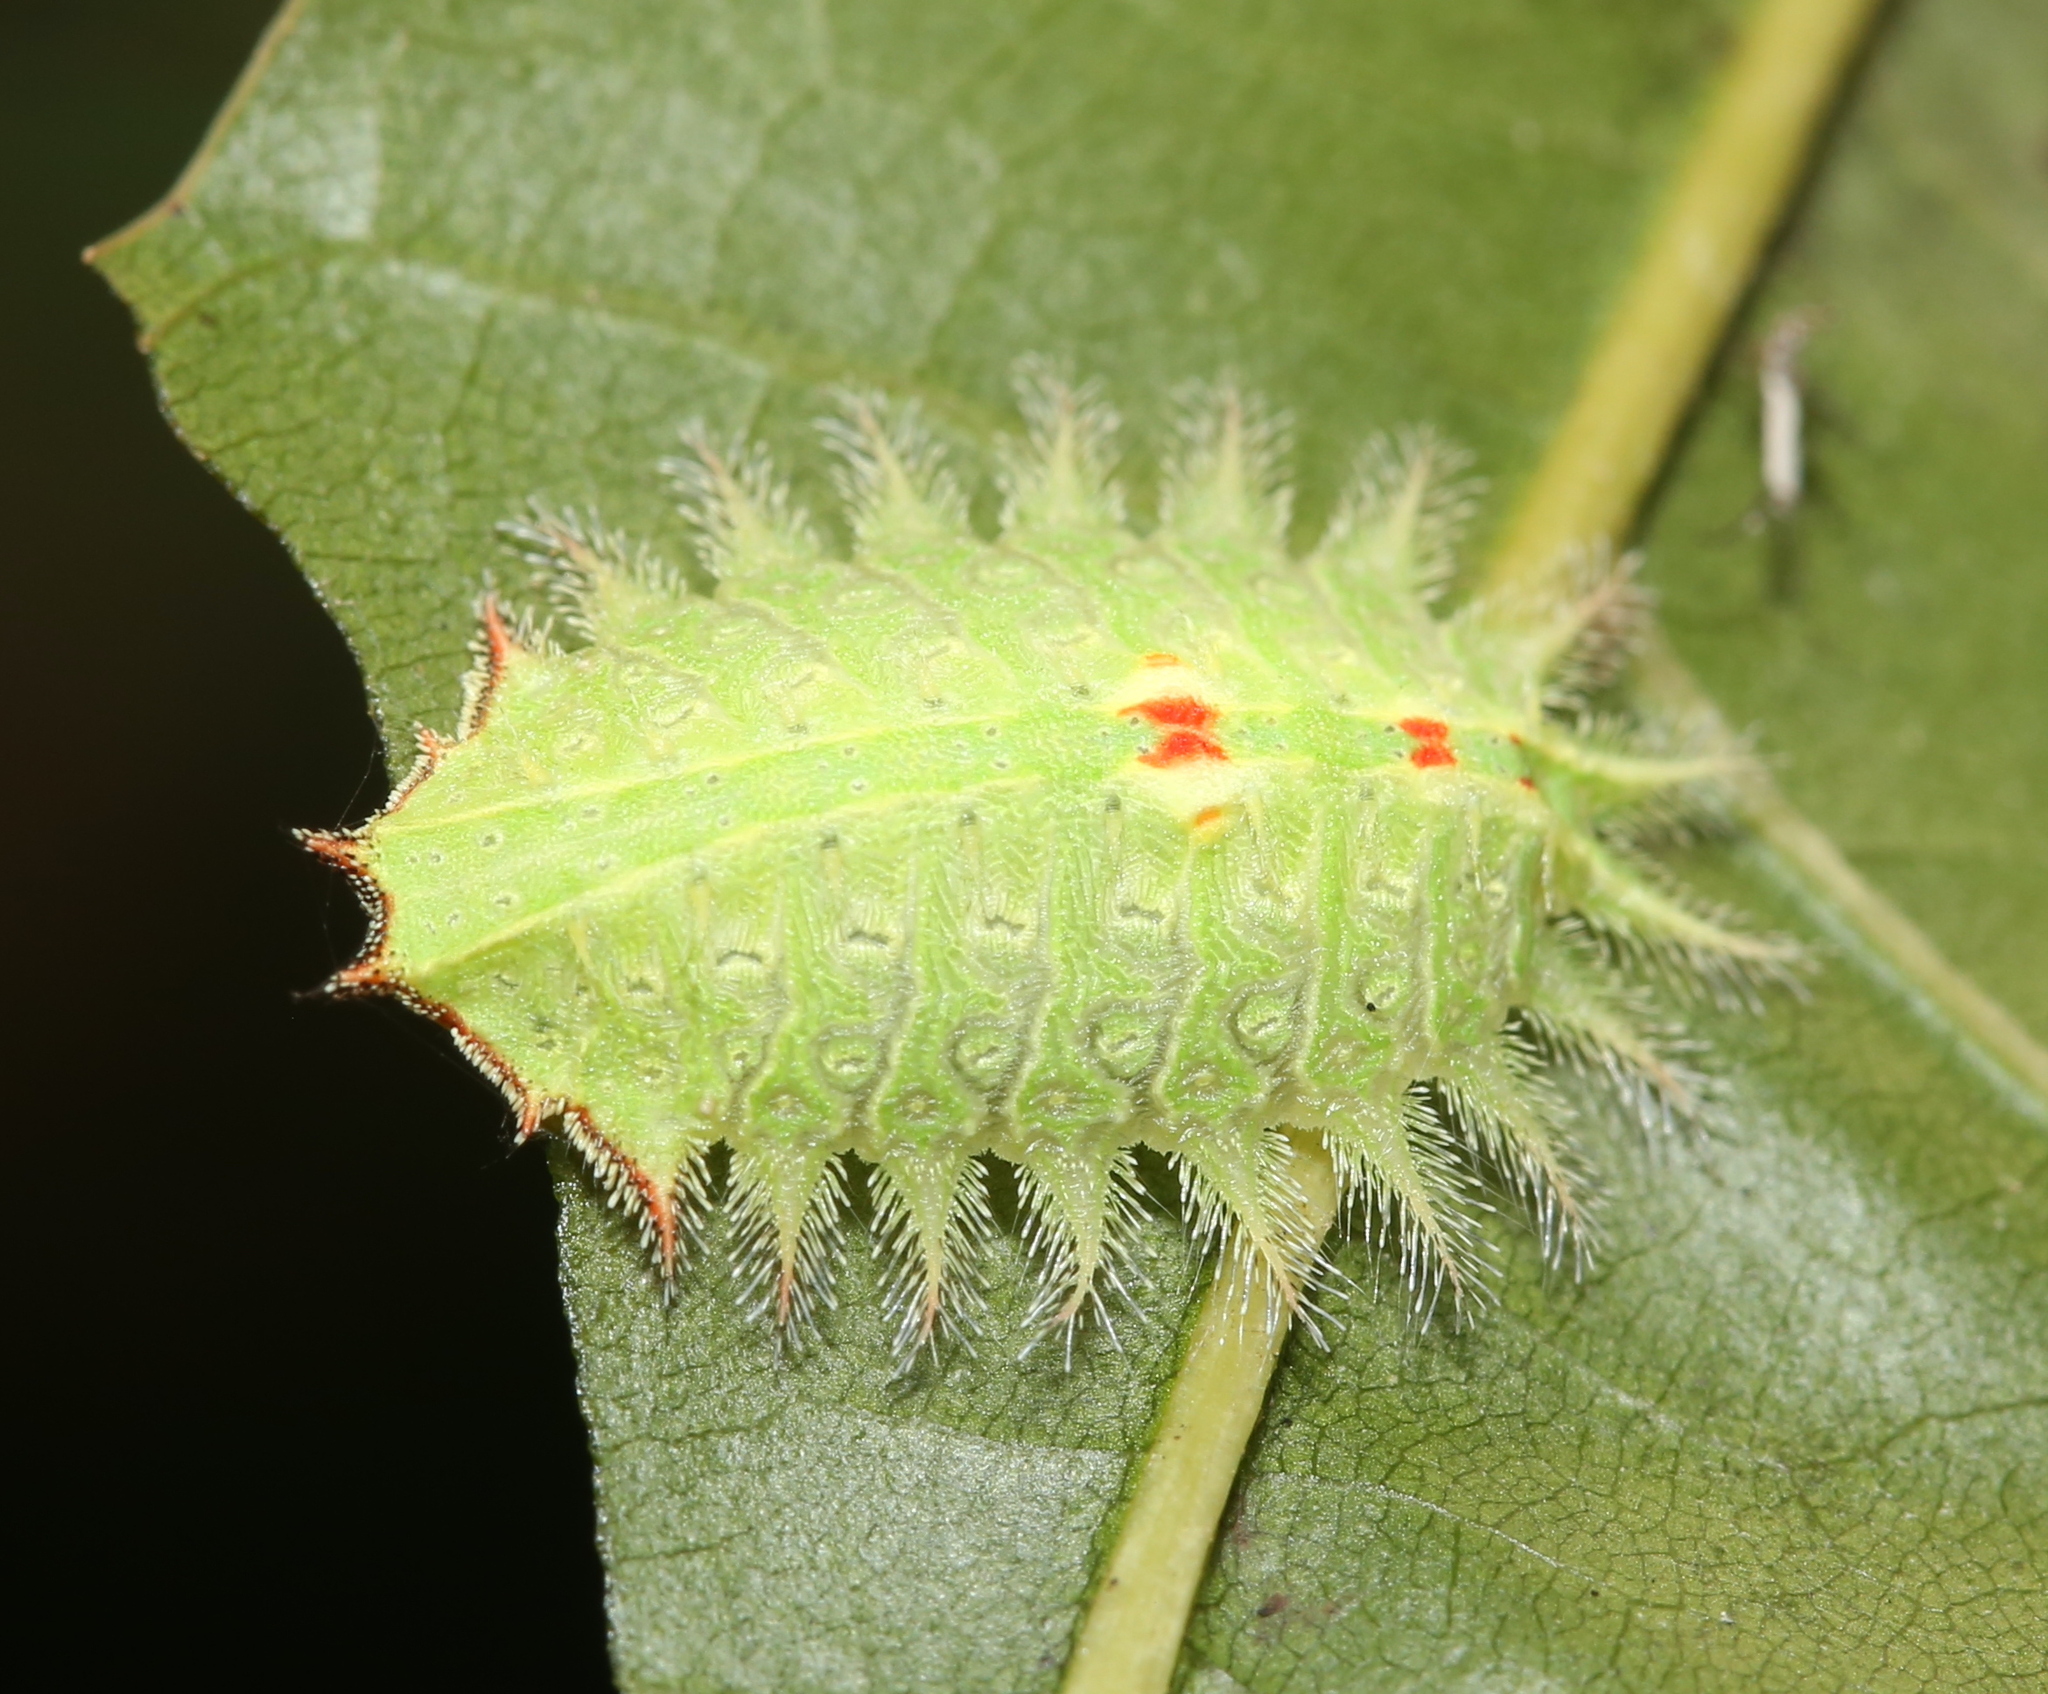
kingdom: Animalia
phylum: Arthropoda
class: Insecta
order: Lepidoptera
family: Limacodidae
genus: Isa
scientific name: Isa textula
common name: Crowned slug moth
